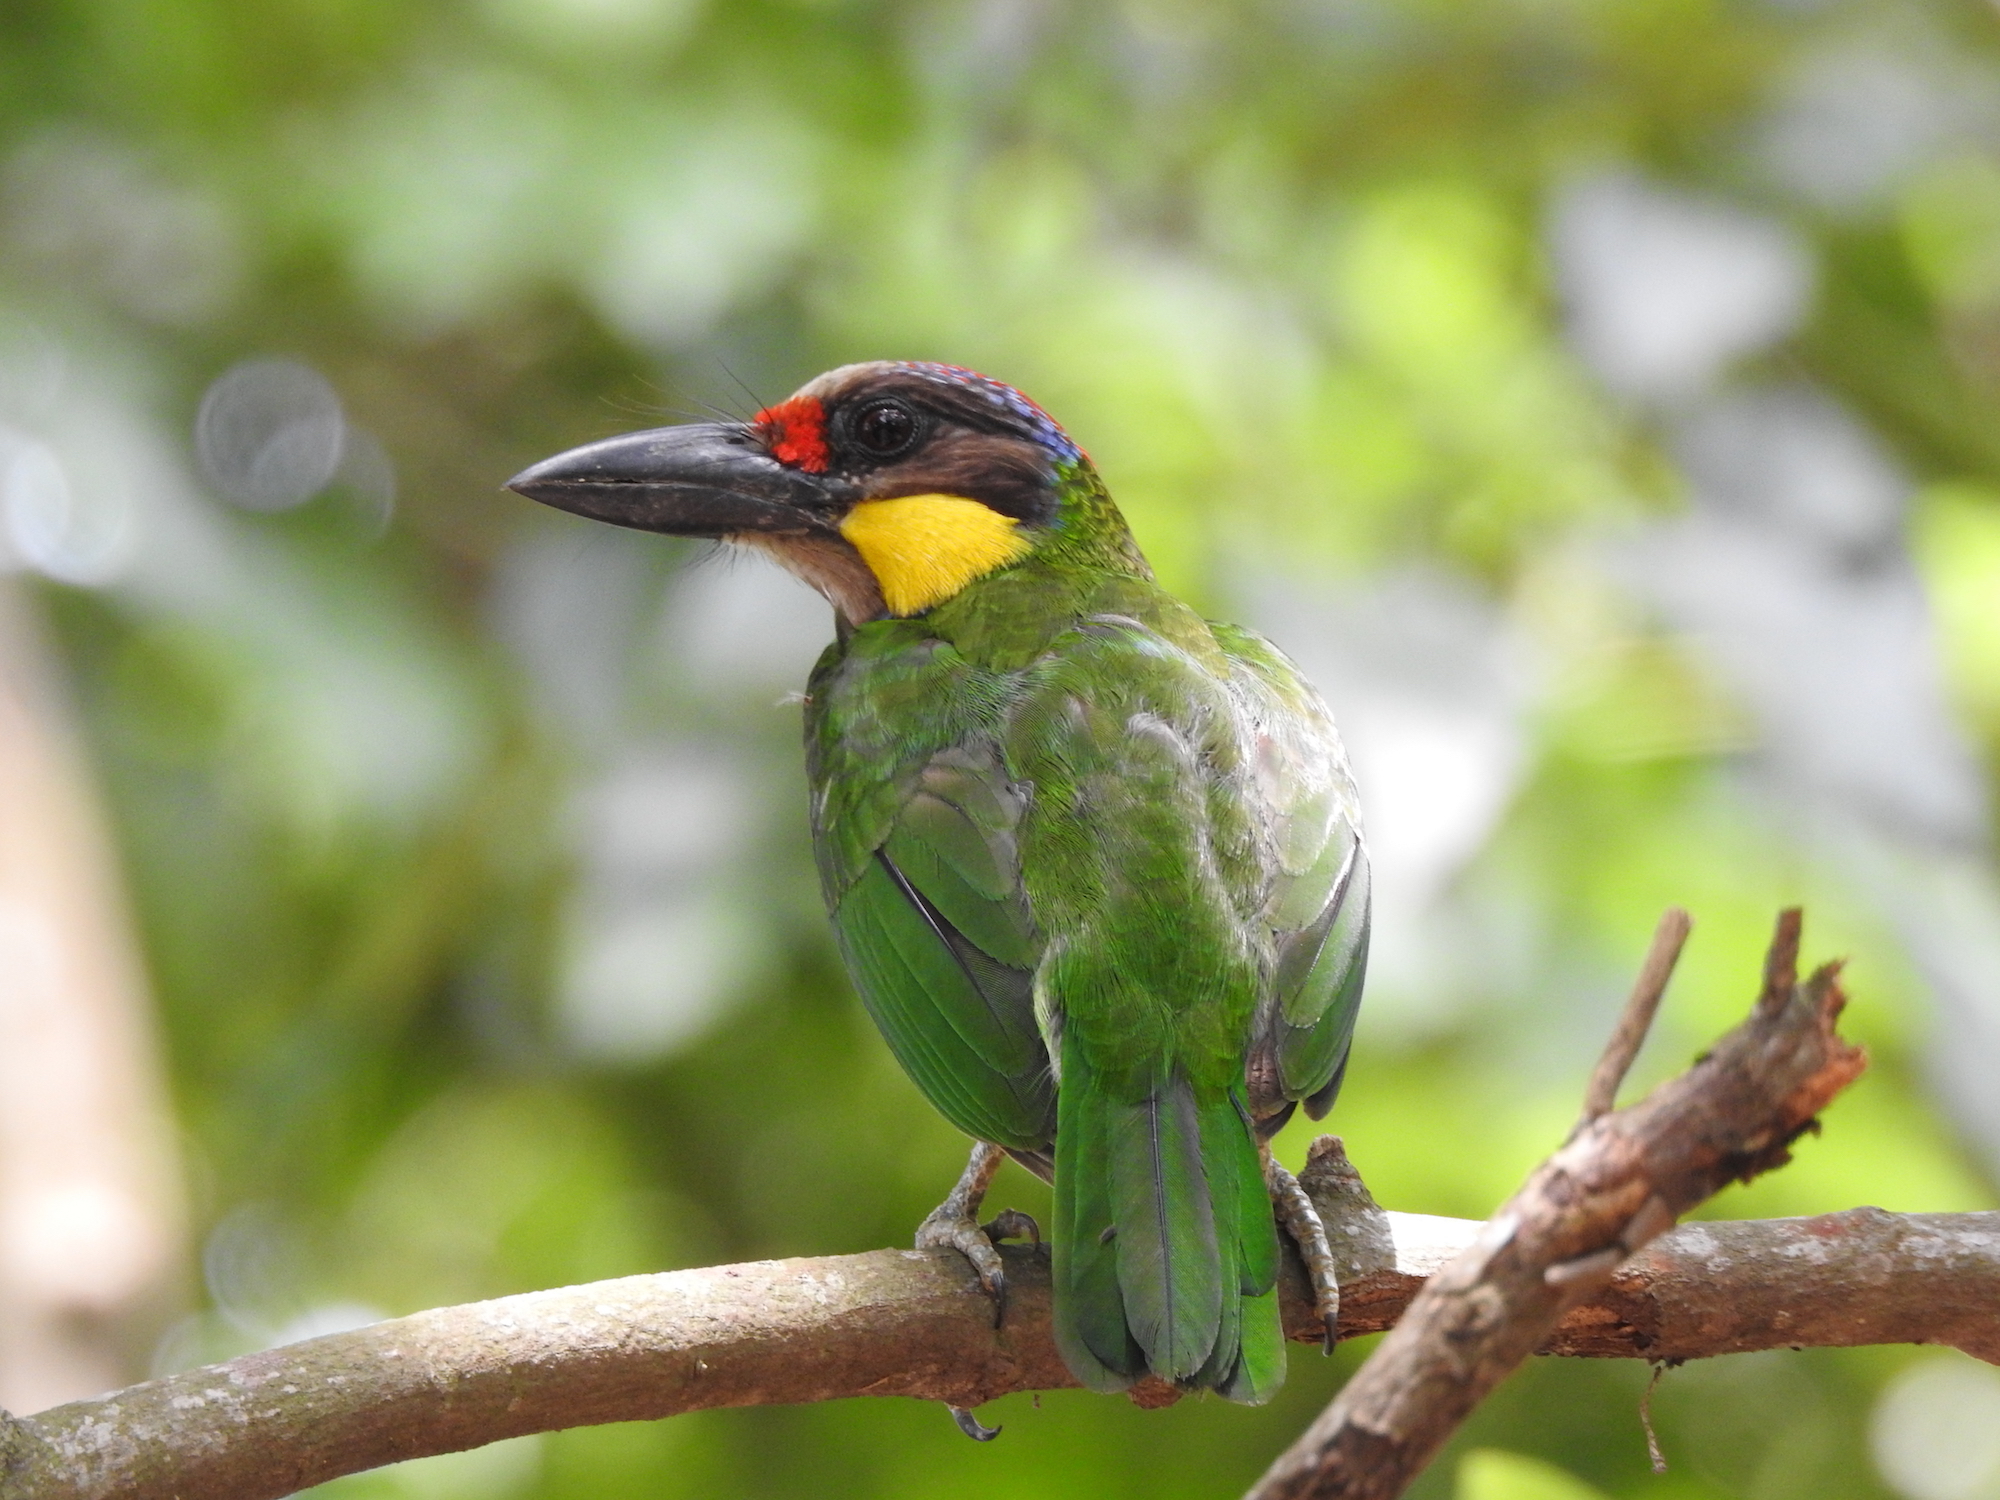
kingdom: Animalia
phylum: Chordata
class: Aves
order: Piciformes
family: Megalaimidae
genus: Psilopogon
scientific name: Psilopogon chrysopogon
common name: Golden-whiskered barbet
